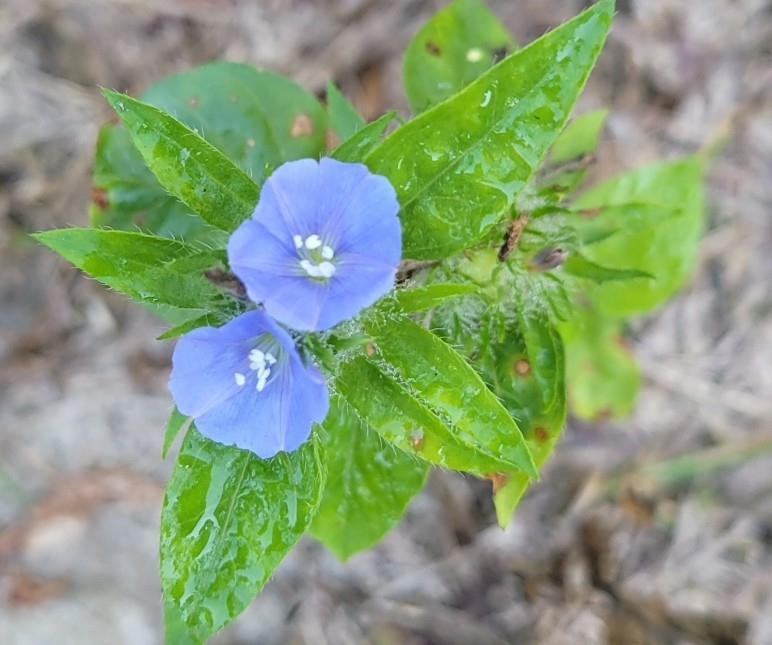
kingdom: Plantae
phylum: Tracheophyta
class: Magnoliopsida
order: Solanales
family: Convolvulaceae
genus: Jacquemontia
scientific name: Jacquemontia tamnifolia
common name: Hairy clustervine
